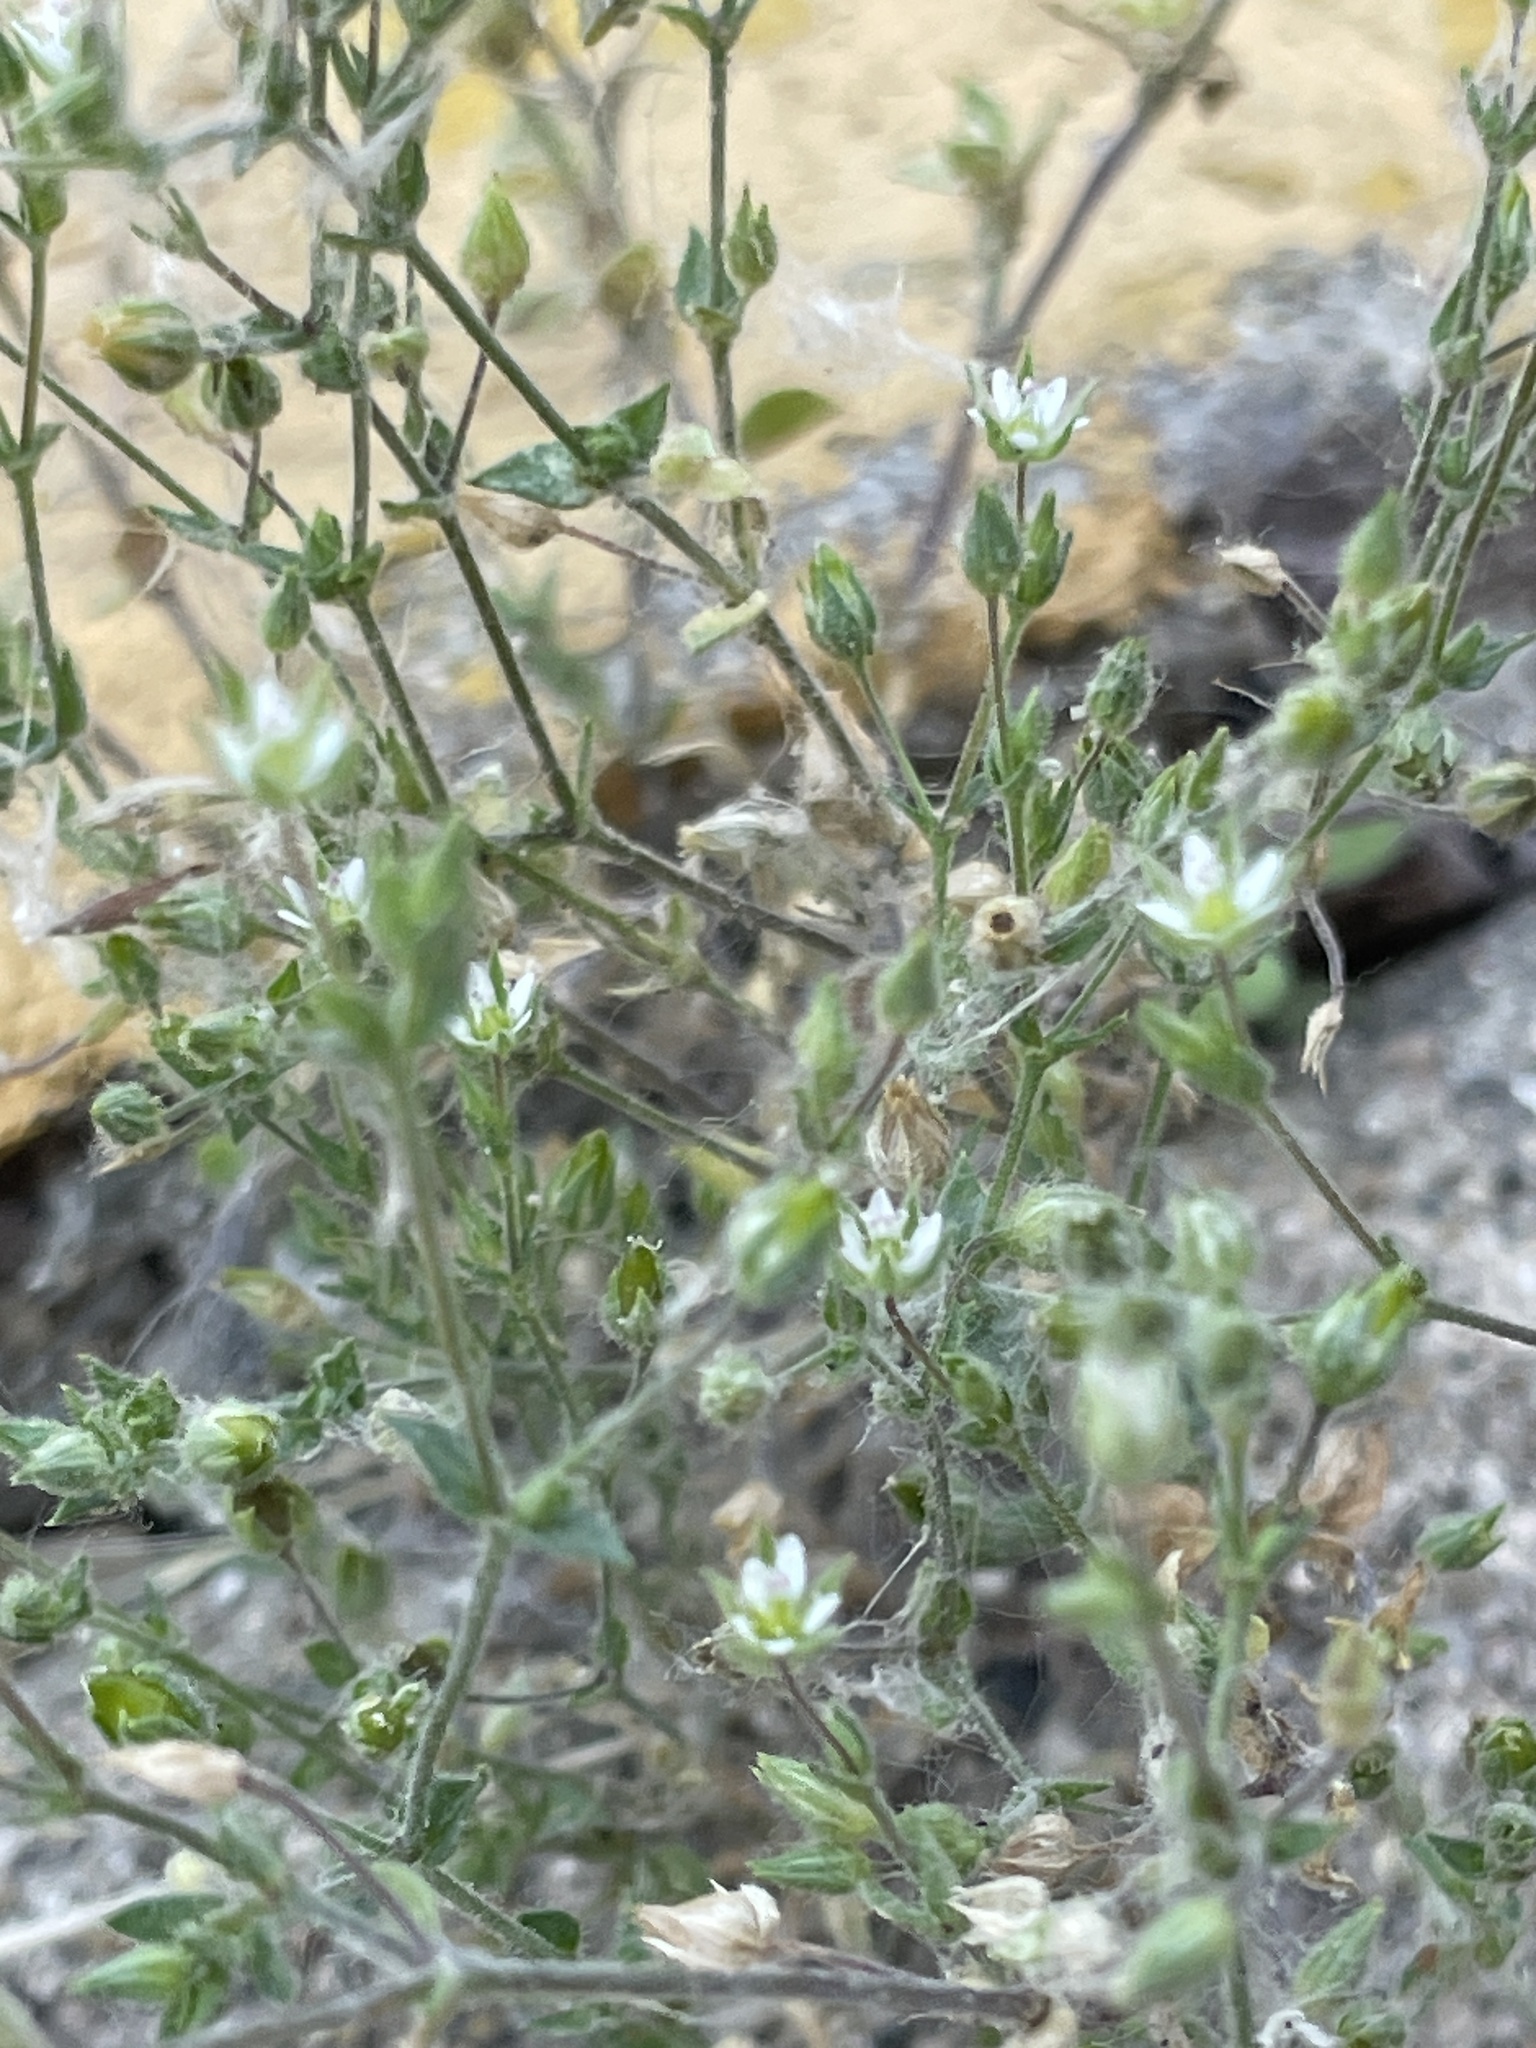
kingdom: Plantae
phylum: Tracheophyta
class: Magnoliopsida
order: Caryophyllales
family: Caryophyllaceae
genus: Arenaria
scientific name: Arenaria serpyllifolia
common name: Thyme-leaved sandwort
